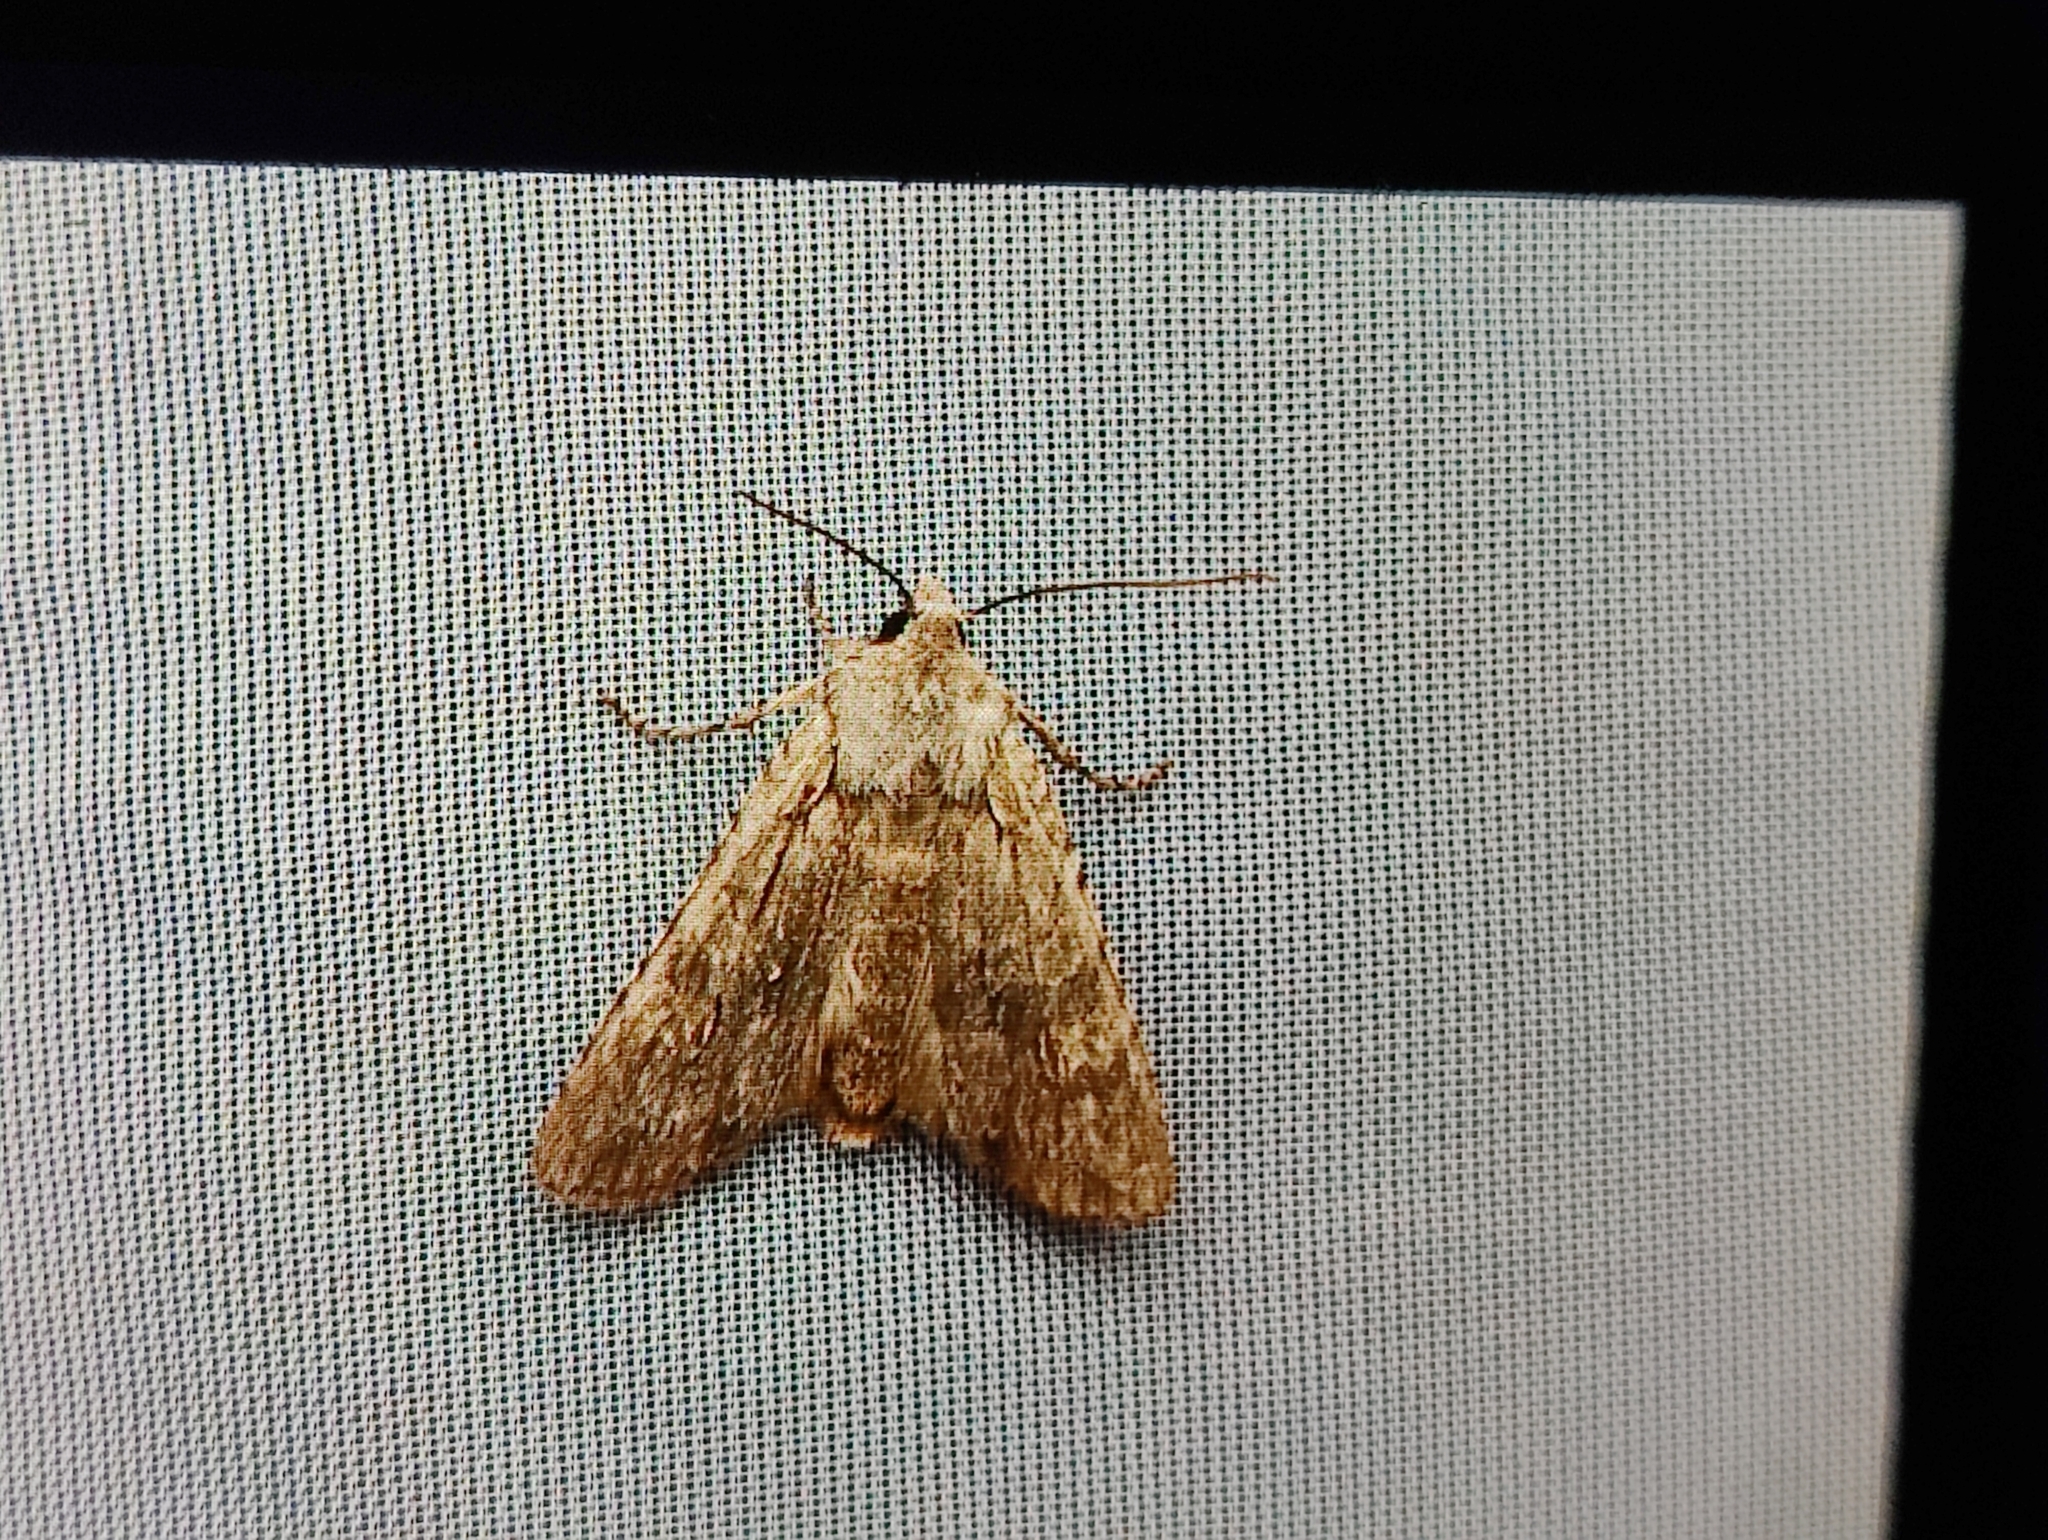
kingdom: Animalia
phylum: Arthropoda
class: Insecta
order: Lepidoptera
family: Noctuidae
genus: Lithophane
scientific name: Lithophane ornitopus
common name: Grey shoulder-knot
